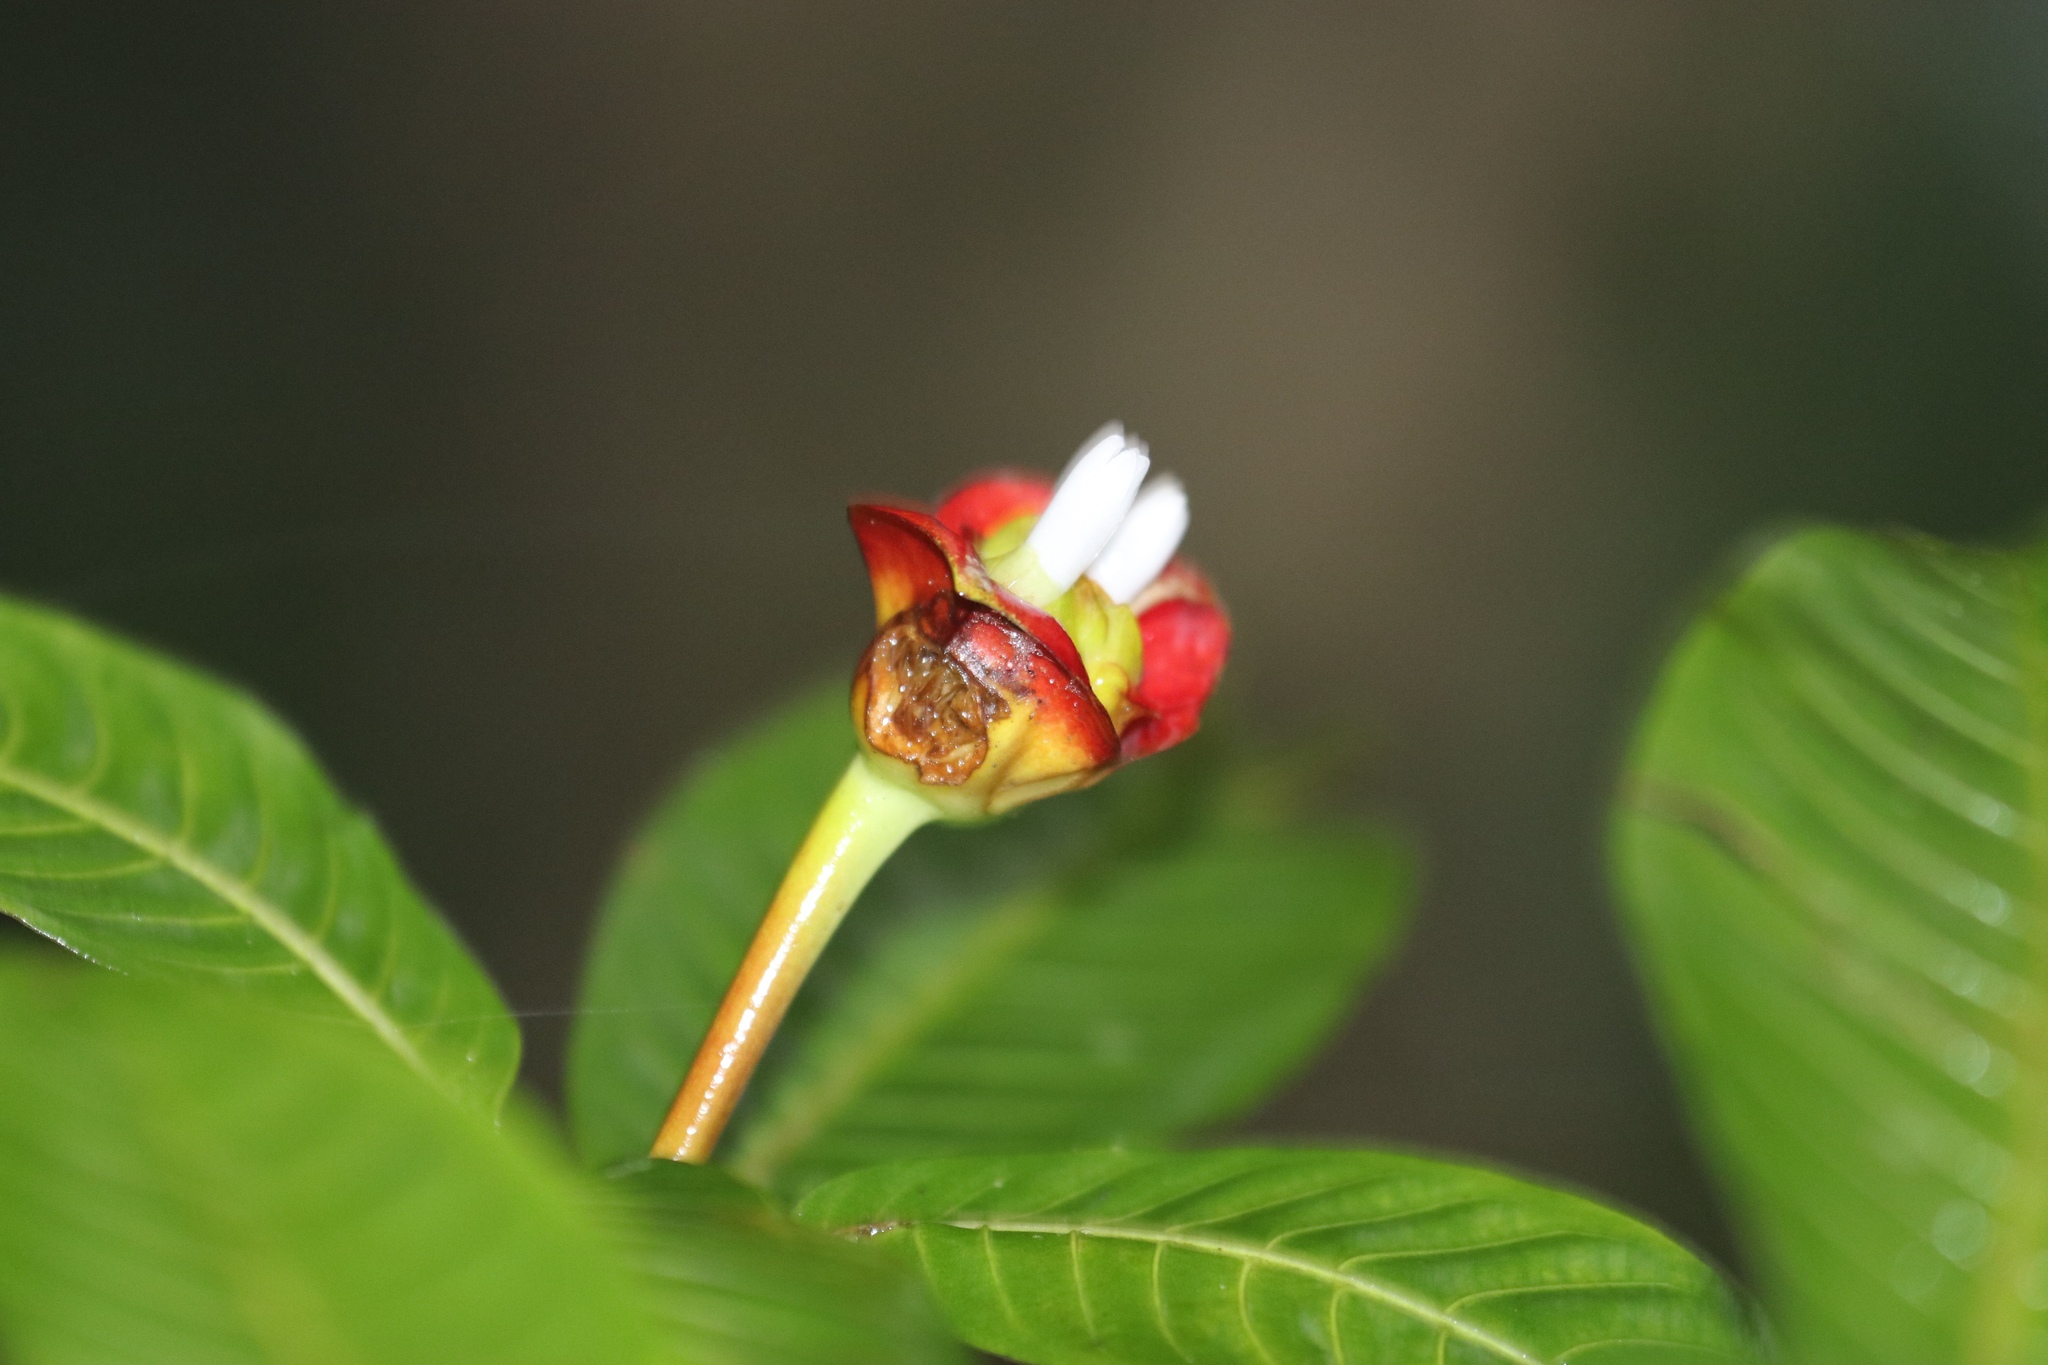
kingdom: Plantae
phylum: Tracheophyta
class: Magnoliopsida
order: Gentianales
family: Rubiaceae
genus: Palicourea
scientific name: Palicourea elata
